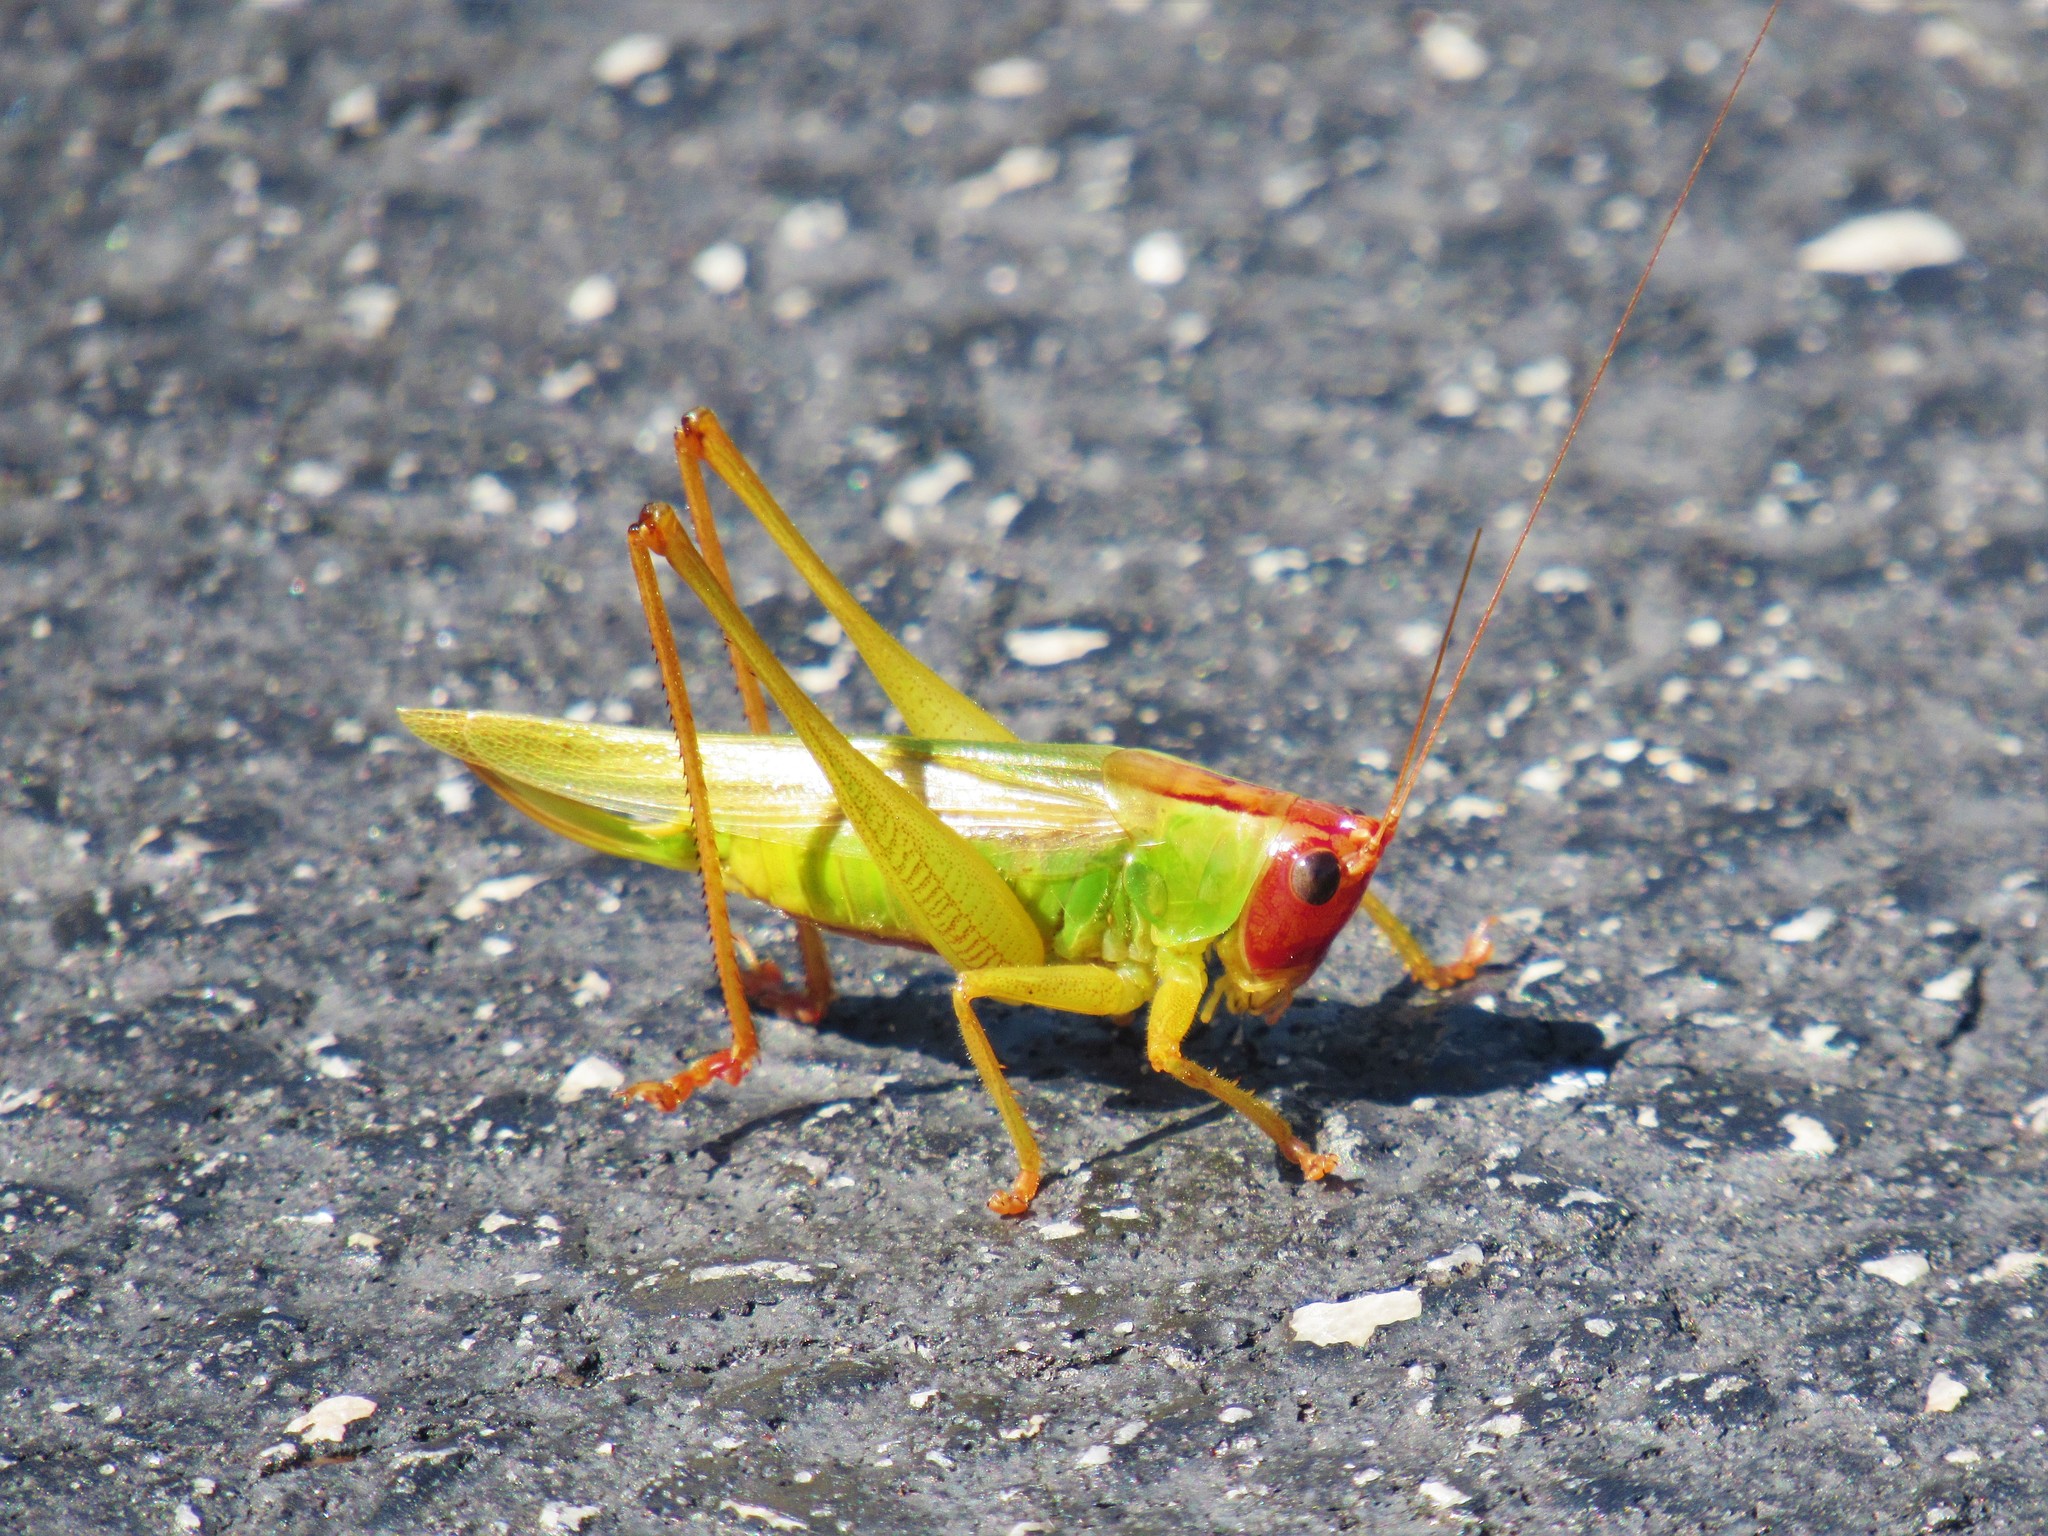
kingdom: Animalia
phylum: Arthropoda
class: Insecta
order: Orthoptera
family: Tettigoniidae
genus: Orchelimum
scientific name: Orchelimum erythrocephalum
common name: Red-headed meadow katydid
